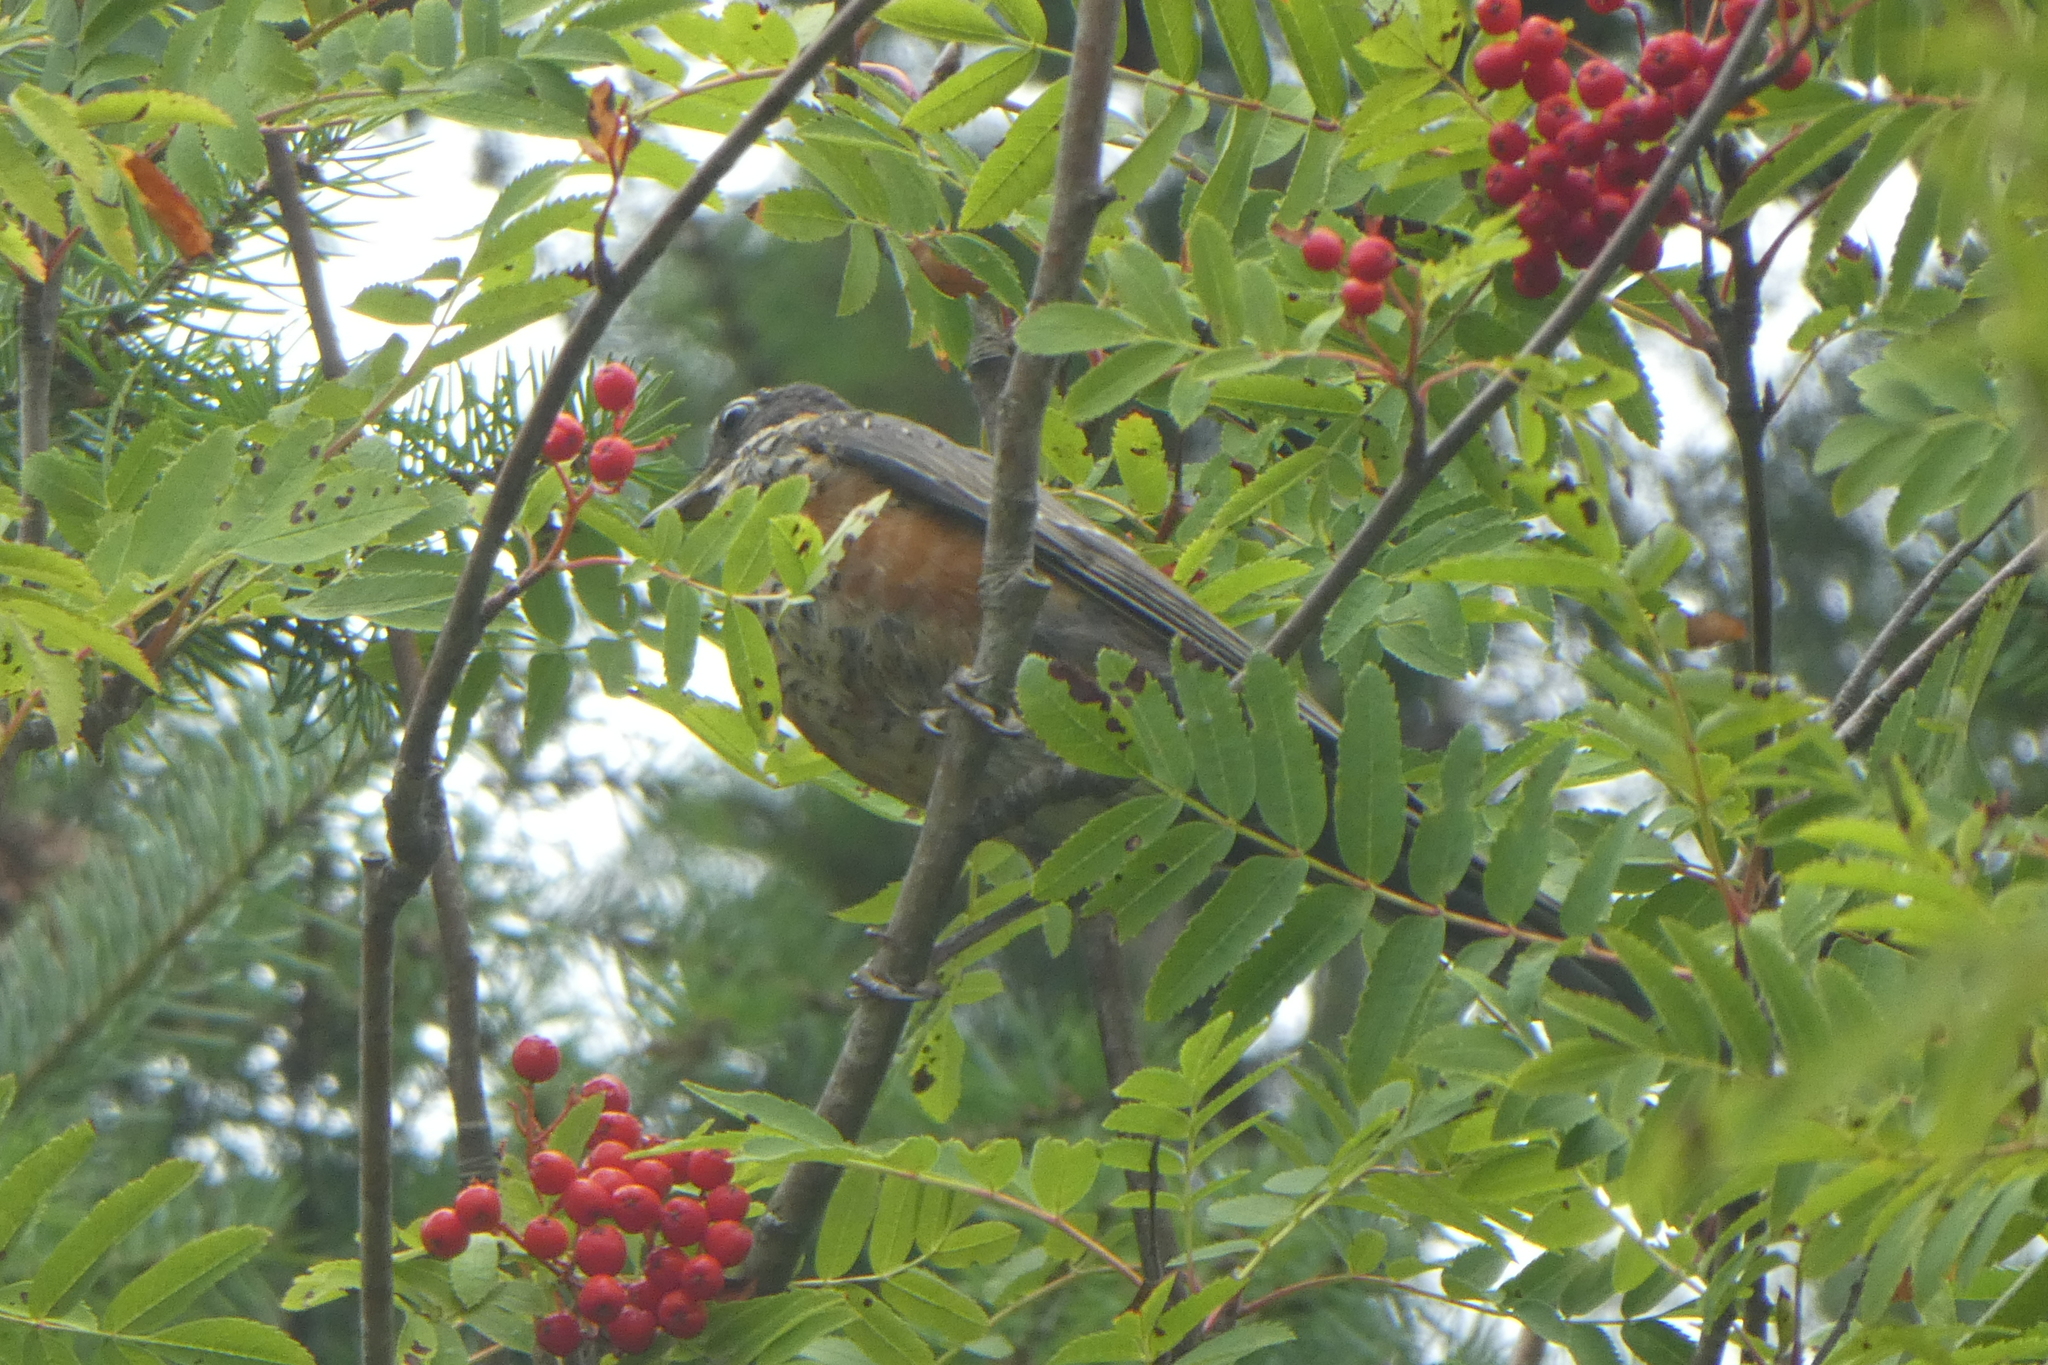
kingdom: Animalia
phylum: Chordata
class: Aves
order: Passeriformes
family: Turdidae
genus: Turdus
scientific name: Turdus migratorius
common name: American robin
